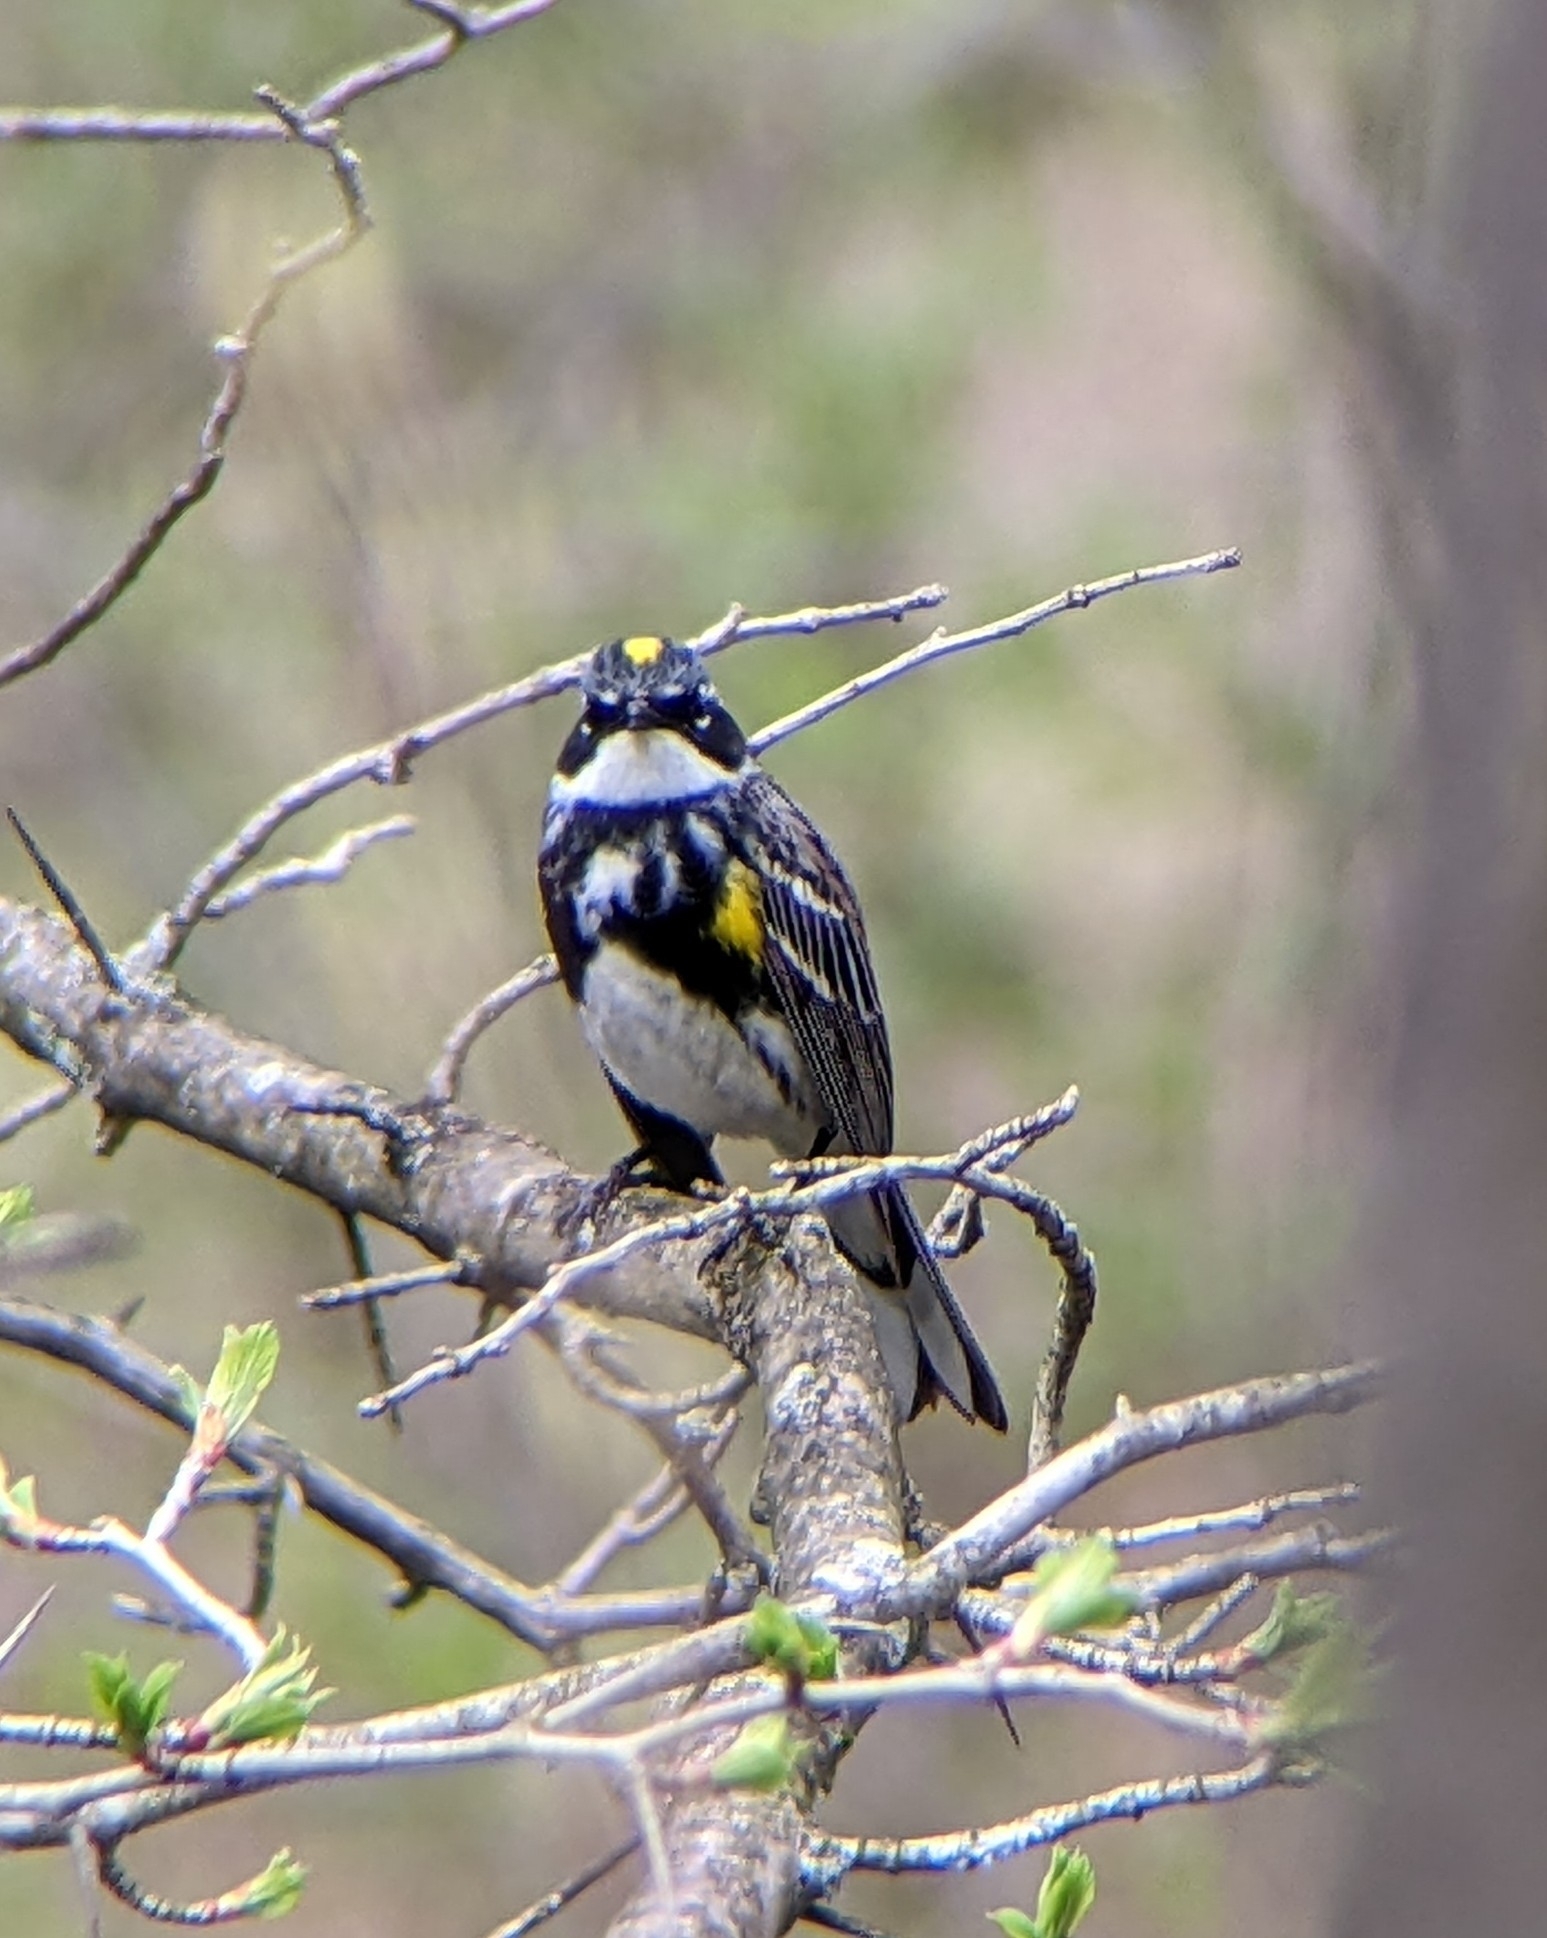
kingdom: Animalia
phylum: Chordata
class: Aves
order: Passeriformes
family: Parulidae
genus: Setophaga
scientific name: Setophaga coronata
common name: Myrtle warbler
